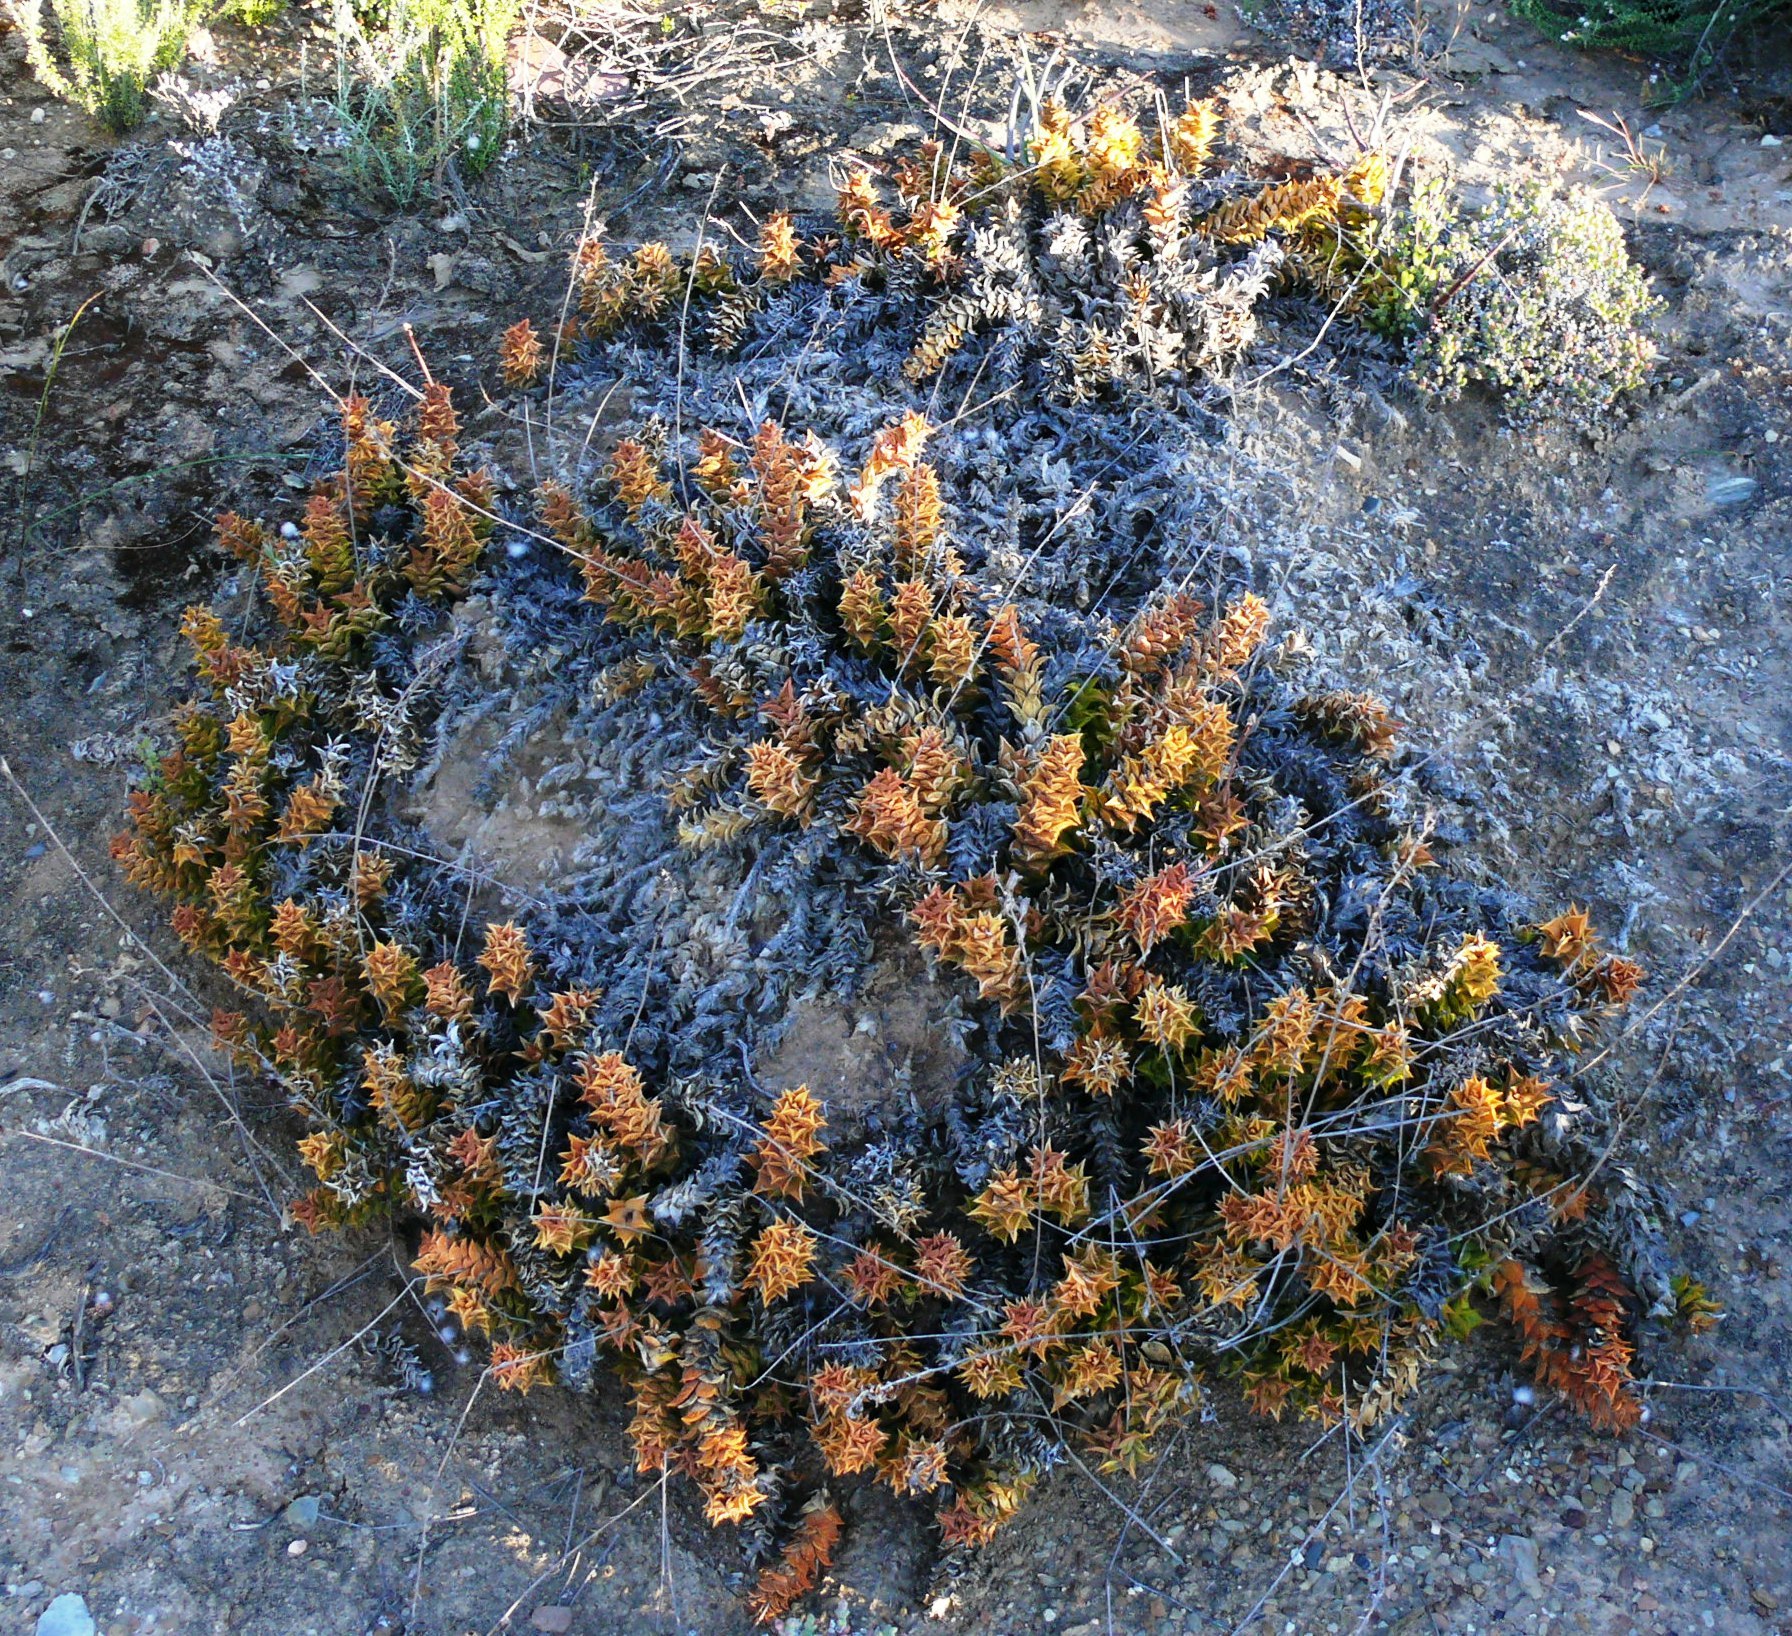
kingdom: Plantae
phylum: Tracheophyta
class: Liliopsida
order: Asparagales
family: Asphodelaceae
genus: Astroloba
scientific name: Astroloba corrugata
